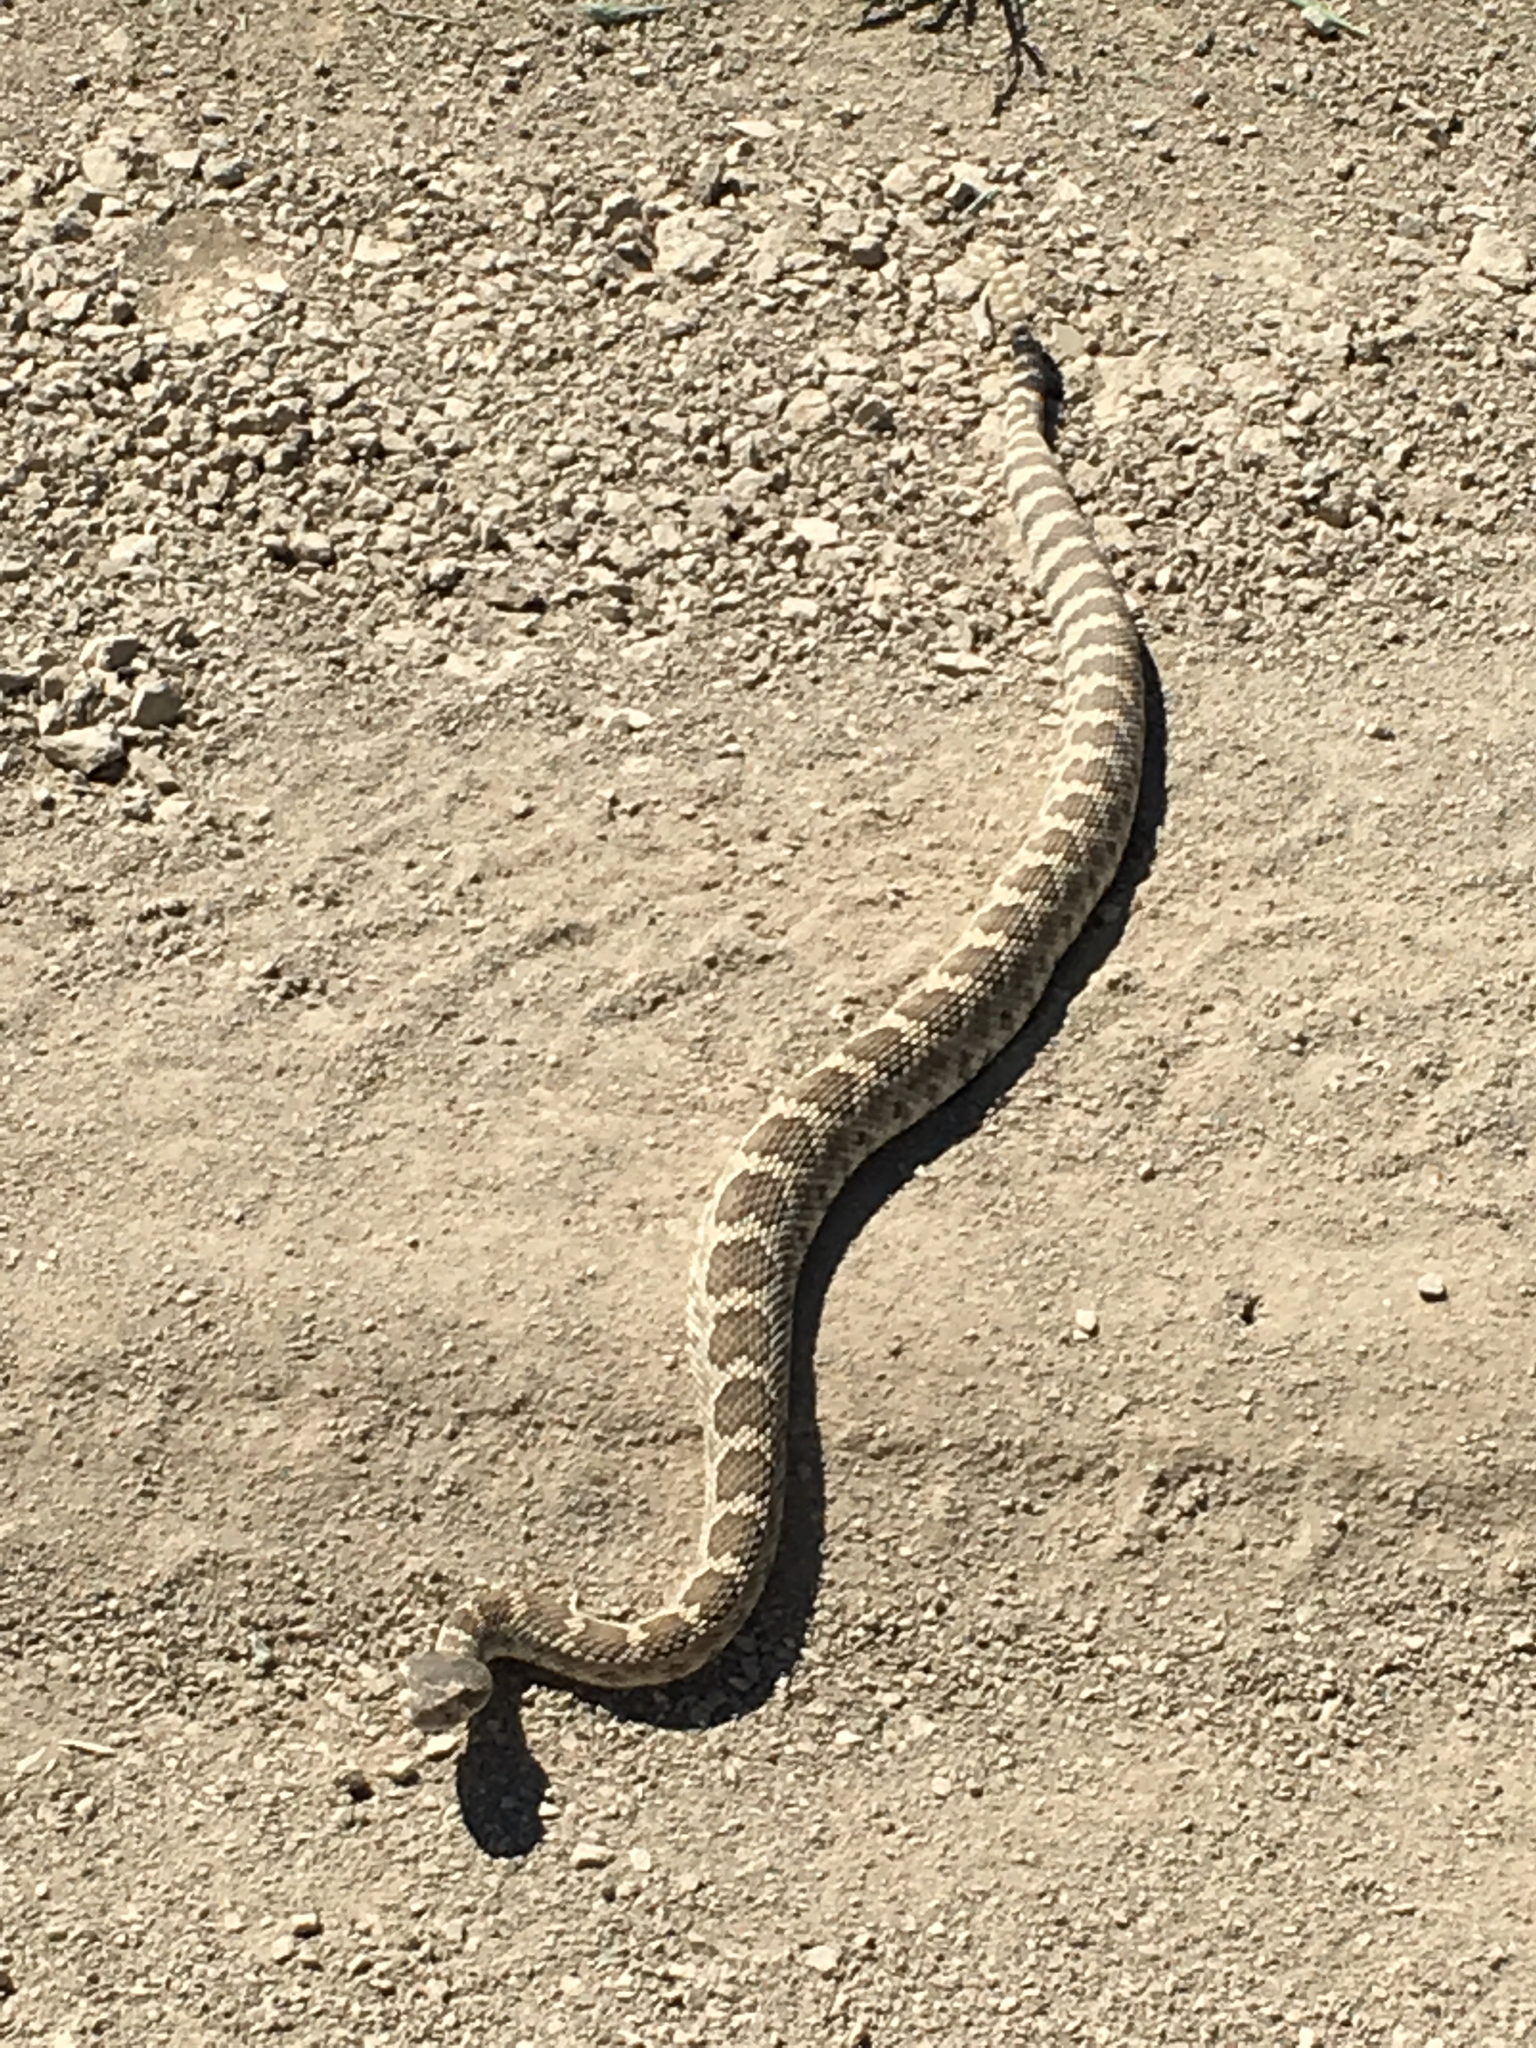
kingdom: Animalia
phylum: Chordata
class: Squamata
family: Viperidae
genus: Crotalus
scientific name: Crotalus oreganus
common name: Abyssus
